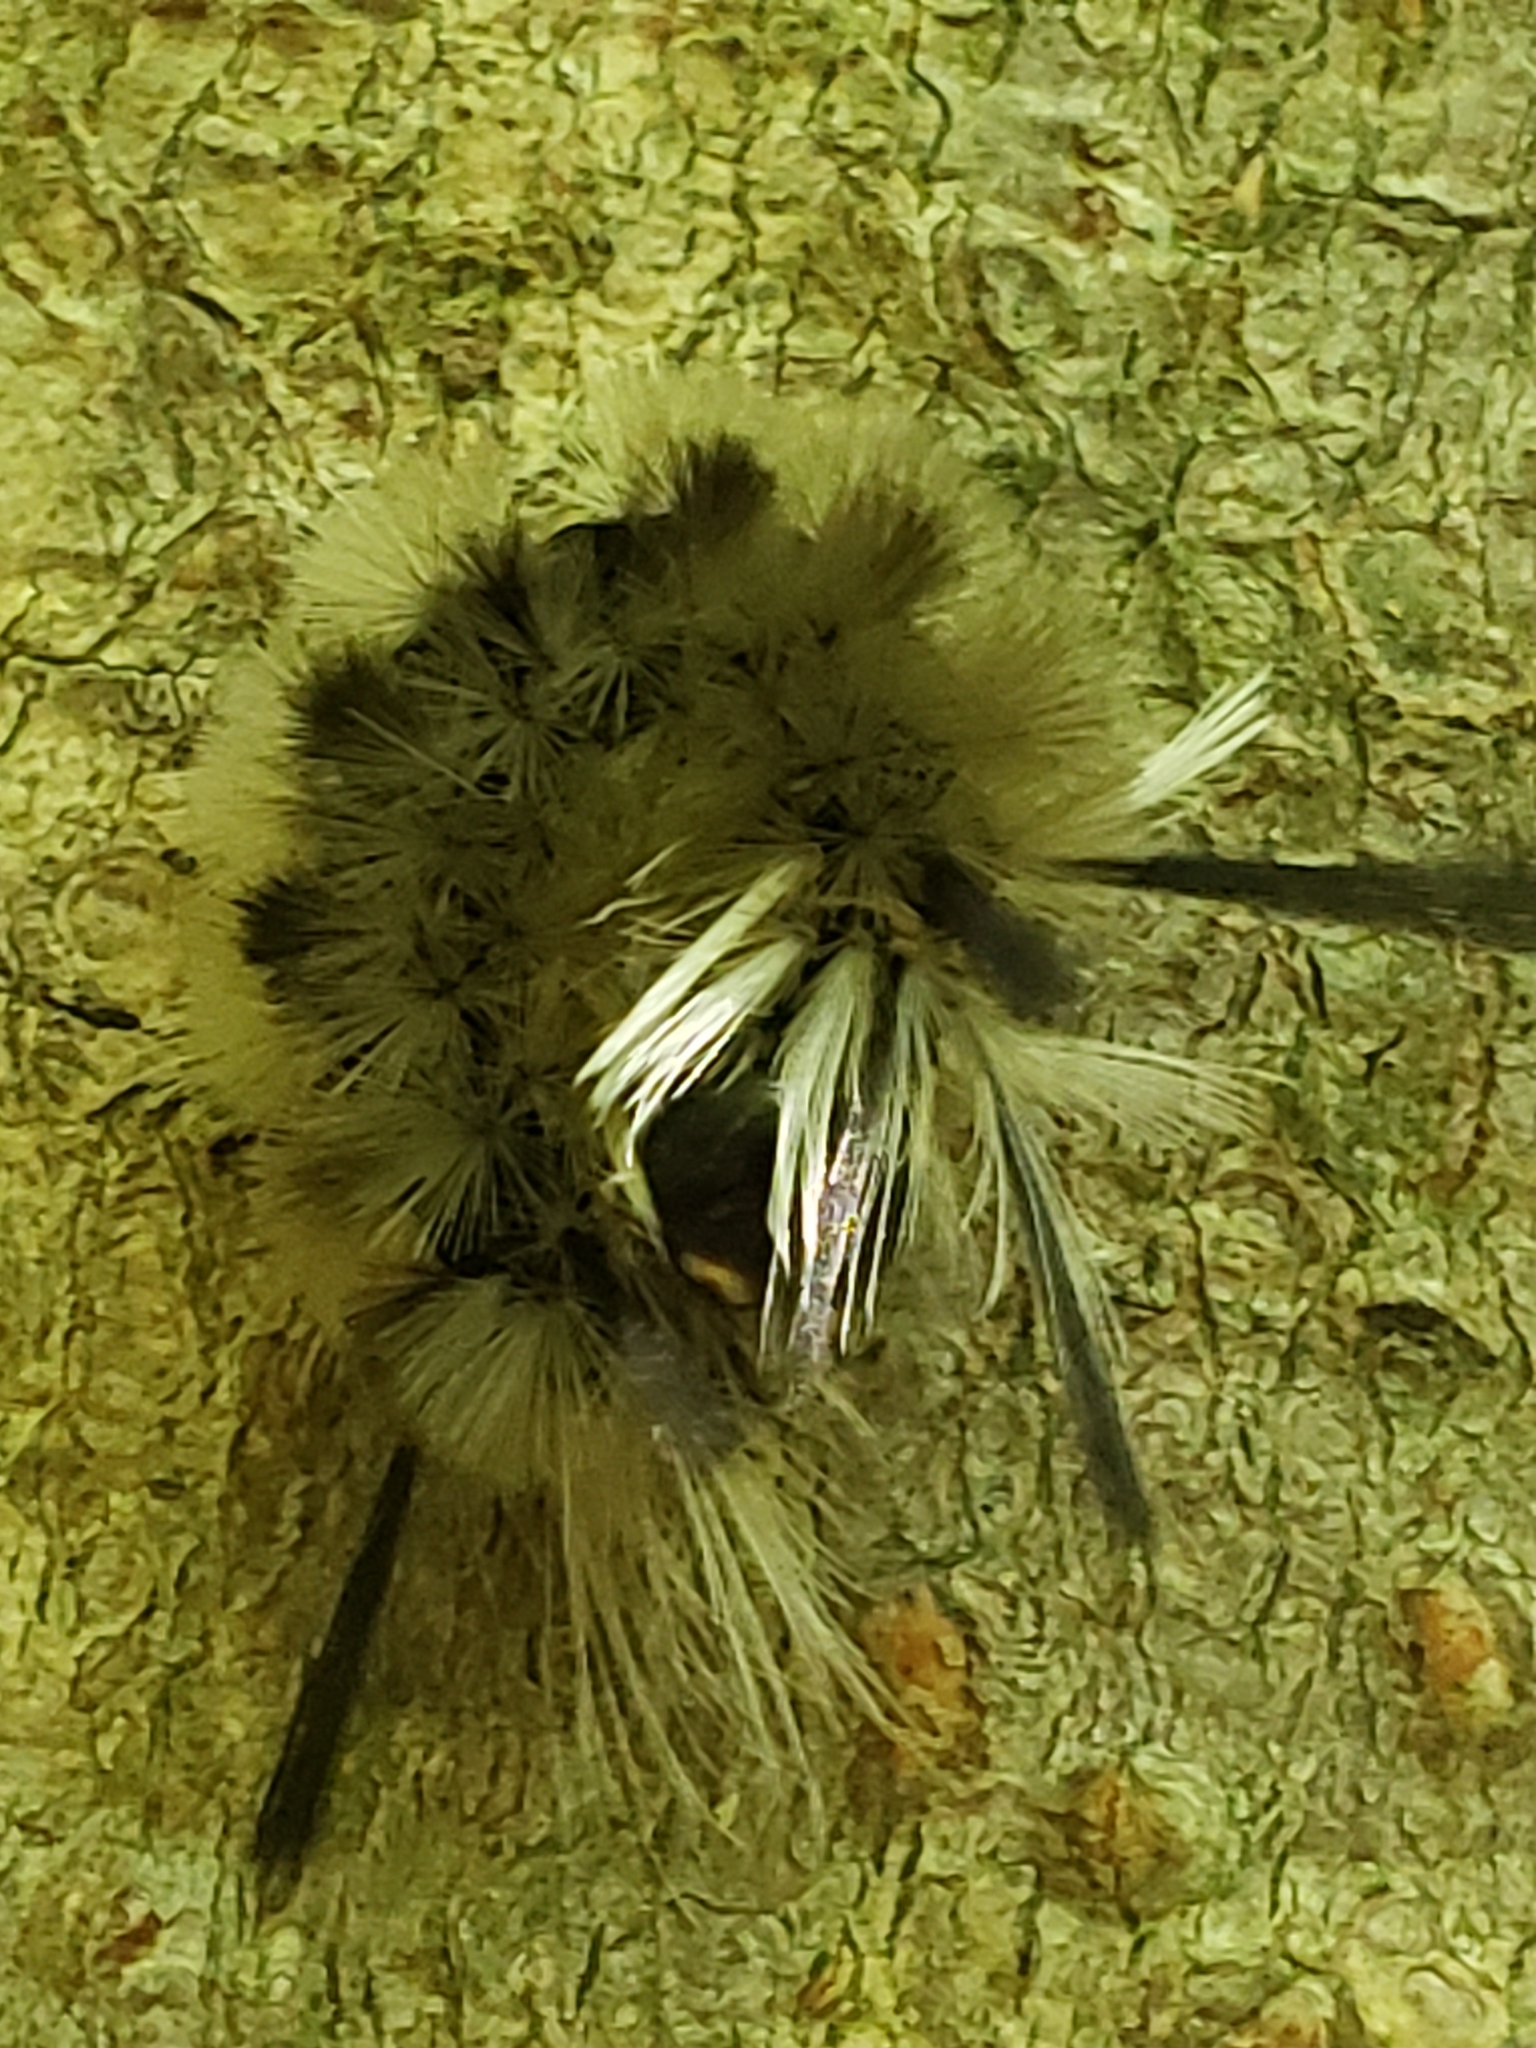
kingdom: Animalia
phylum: Arthropoda
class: Insecta
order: Lepidoptera
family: Erebidae
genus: Halysidota
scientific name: Halysidota tessellaris
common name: Banded tussock moth
